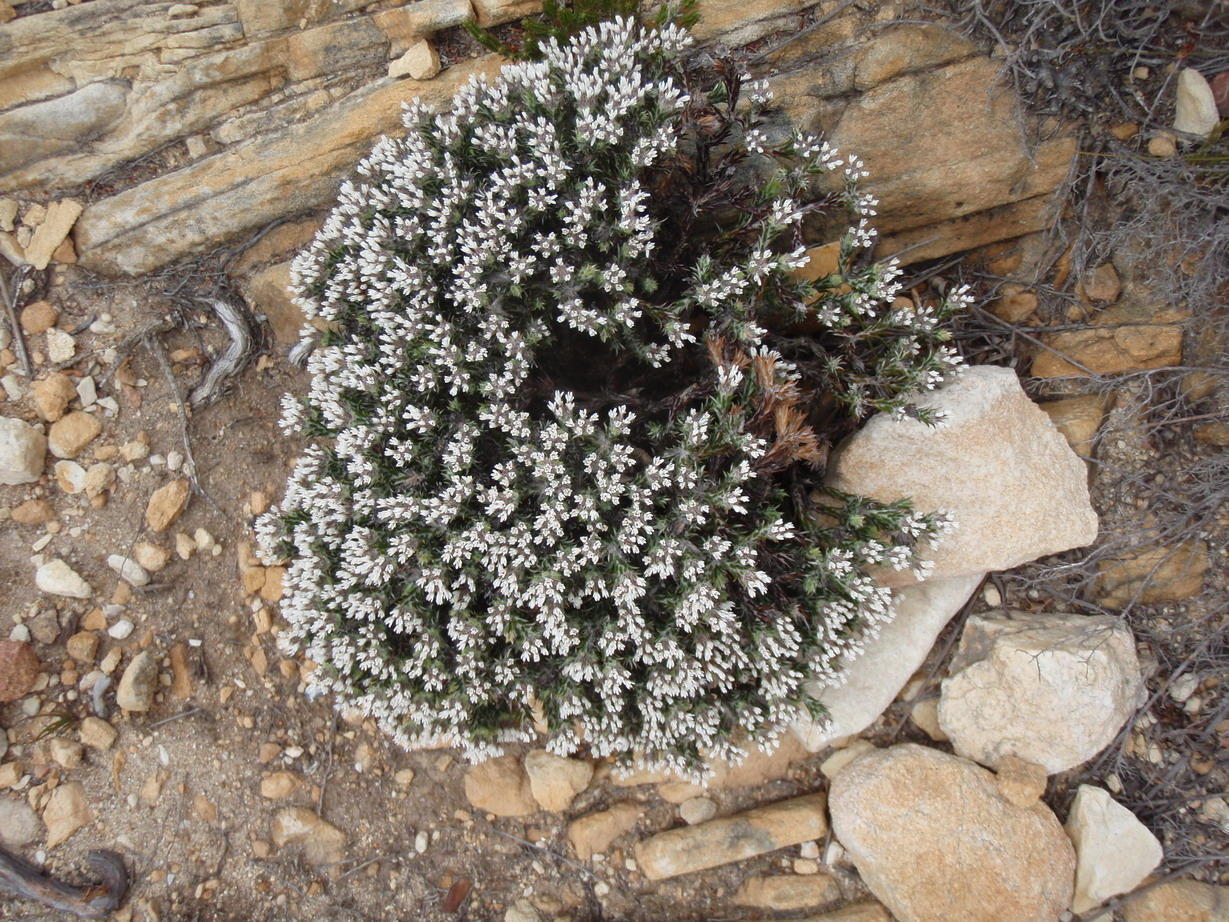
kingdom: Plantae
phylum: Tracheophyta
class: Magnoliopsida
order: Asterales
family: Asteraceae
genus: Metalasia
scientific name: Metalasia strictifolia
